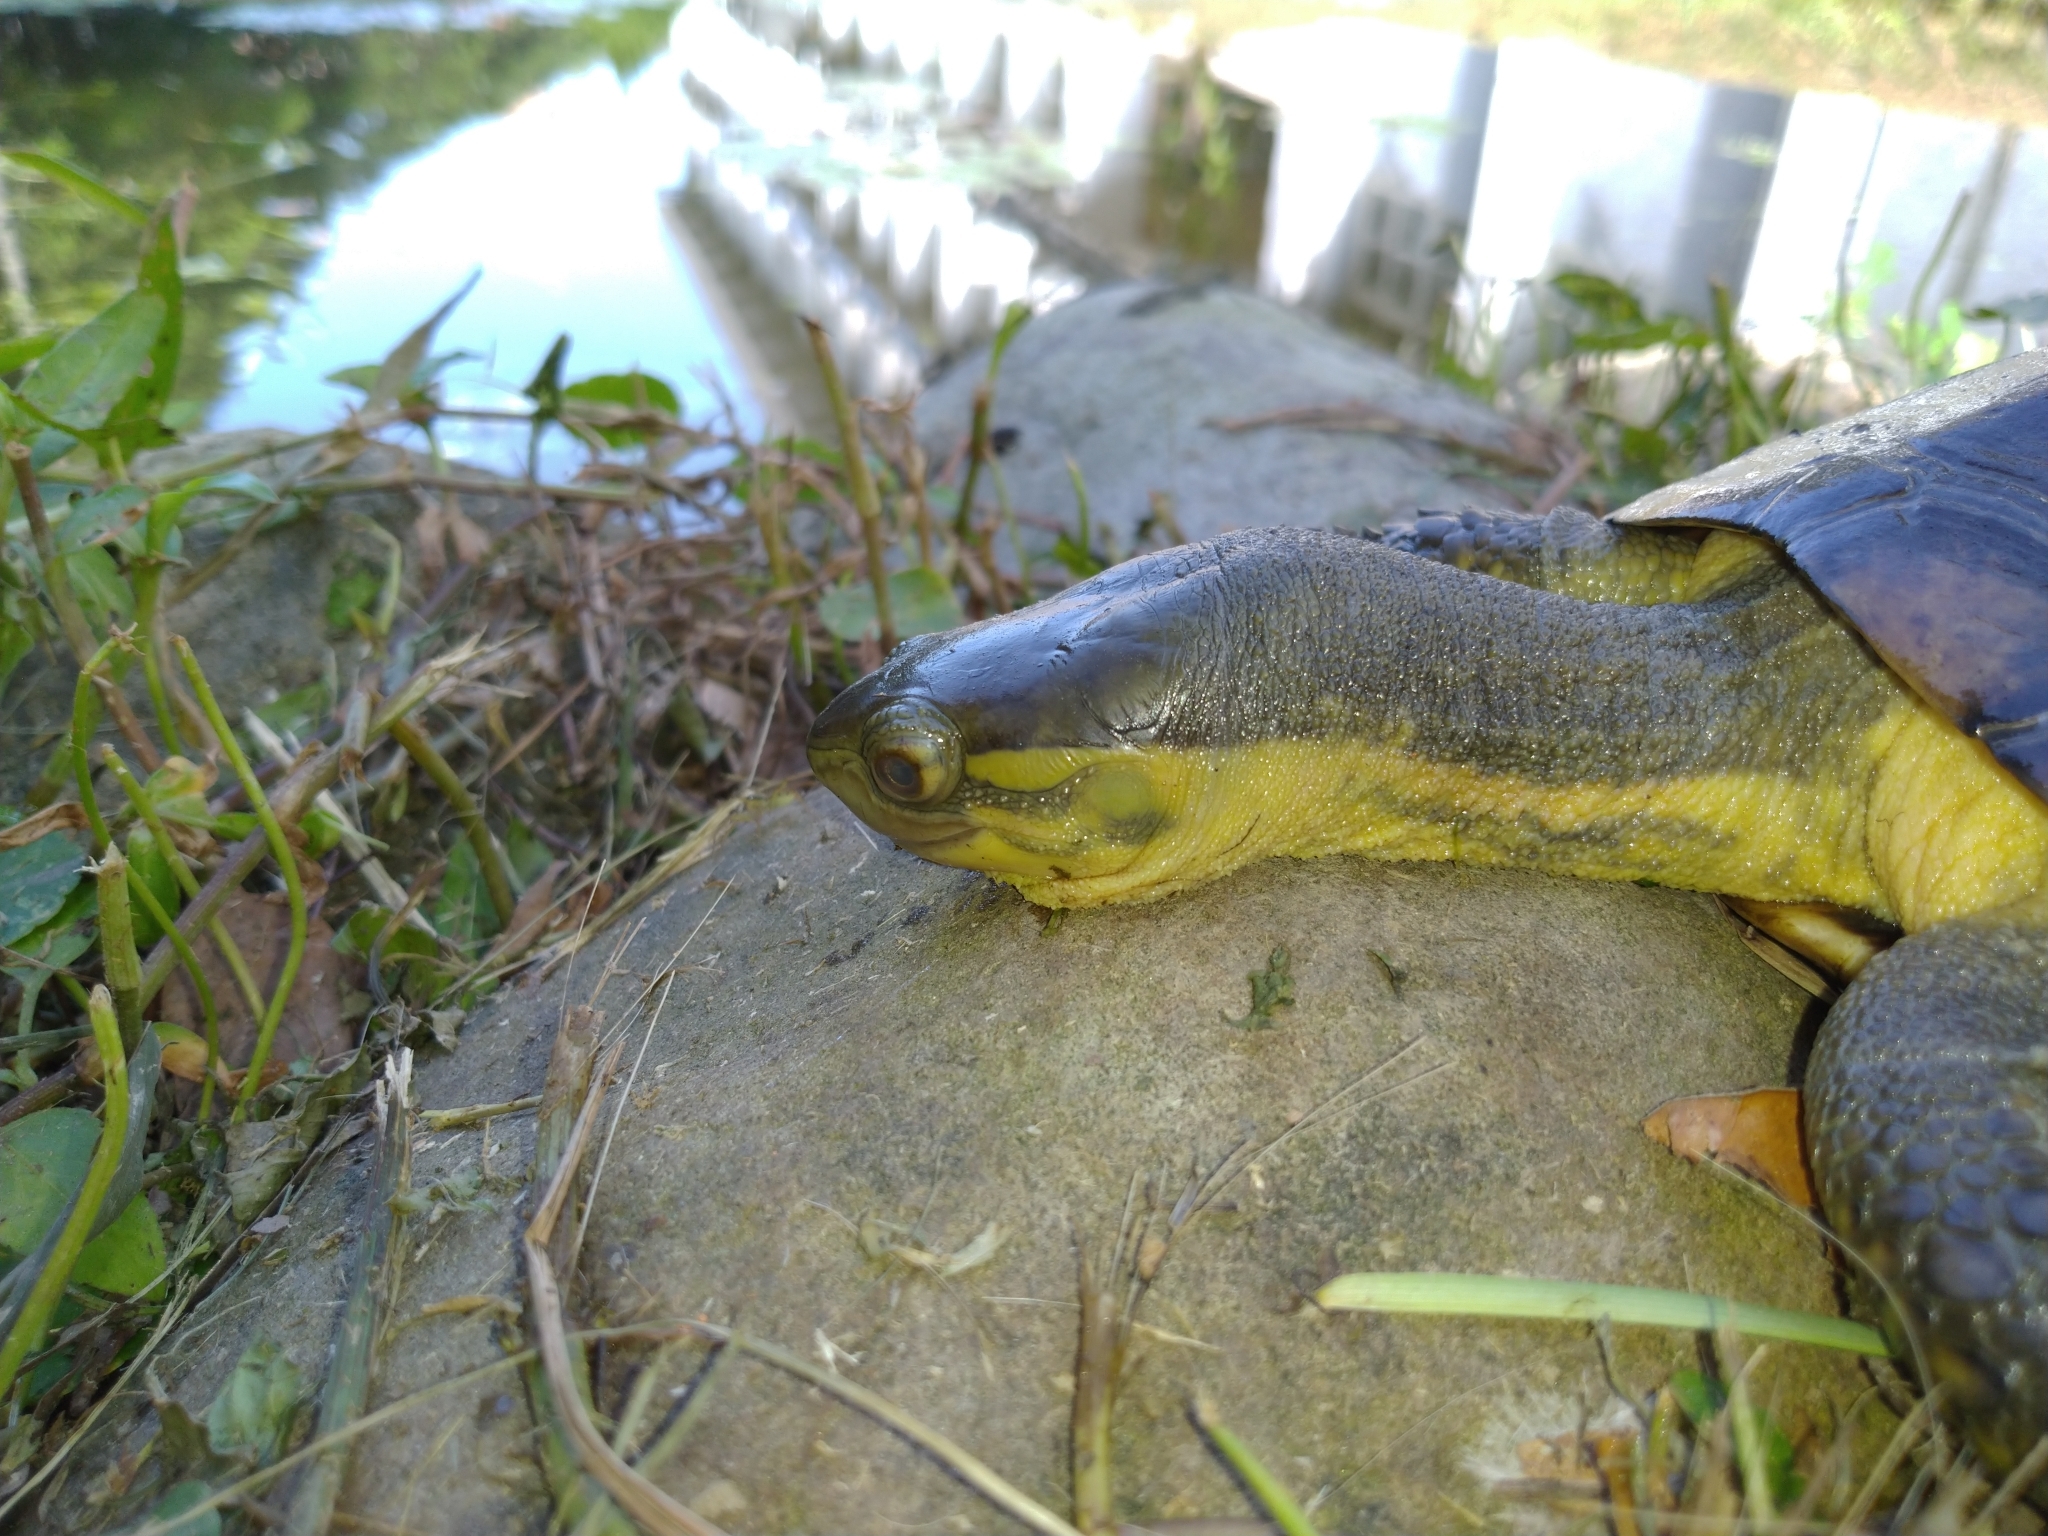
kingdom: Animalia
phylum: Chordata
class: Testudines
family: Geoemydidae
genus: Mauremys
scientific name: Mauremys mutica
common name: Yellow pond turtle
